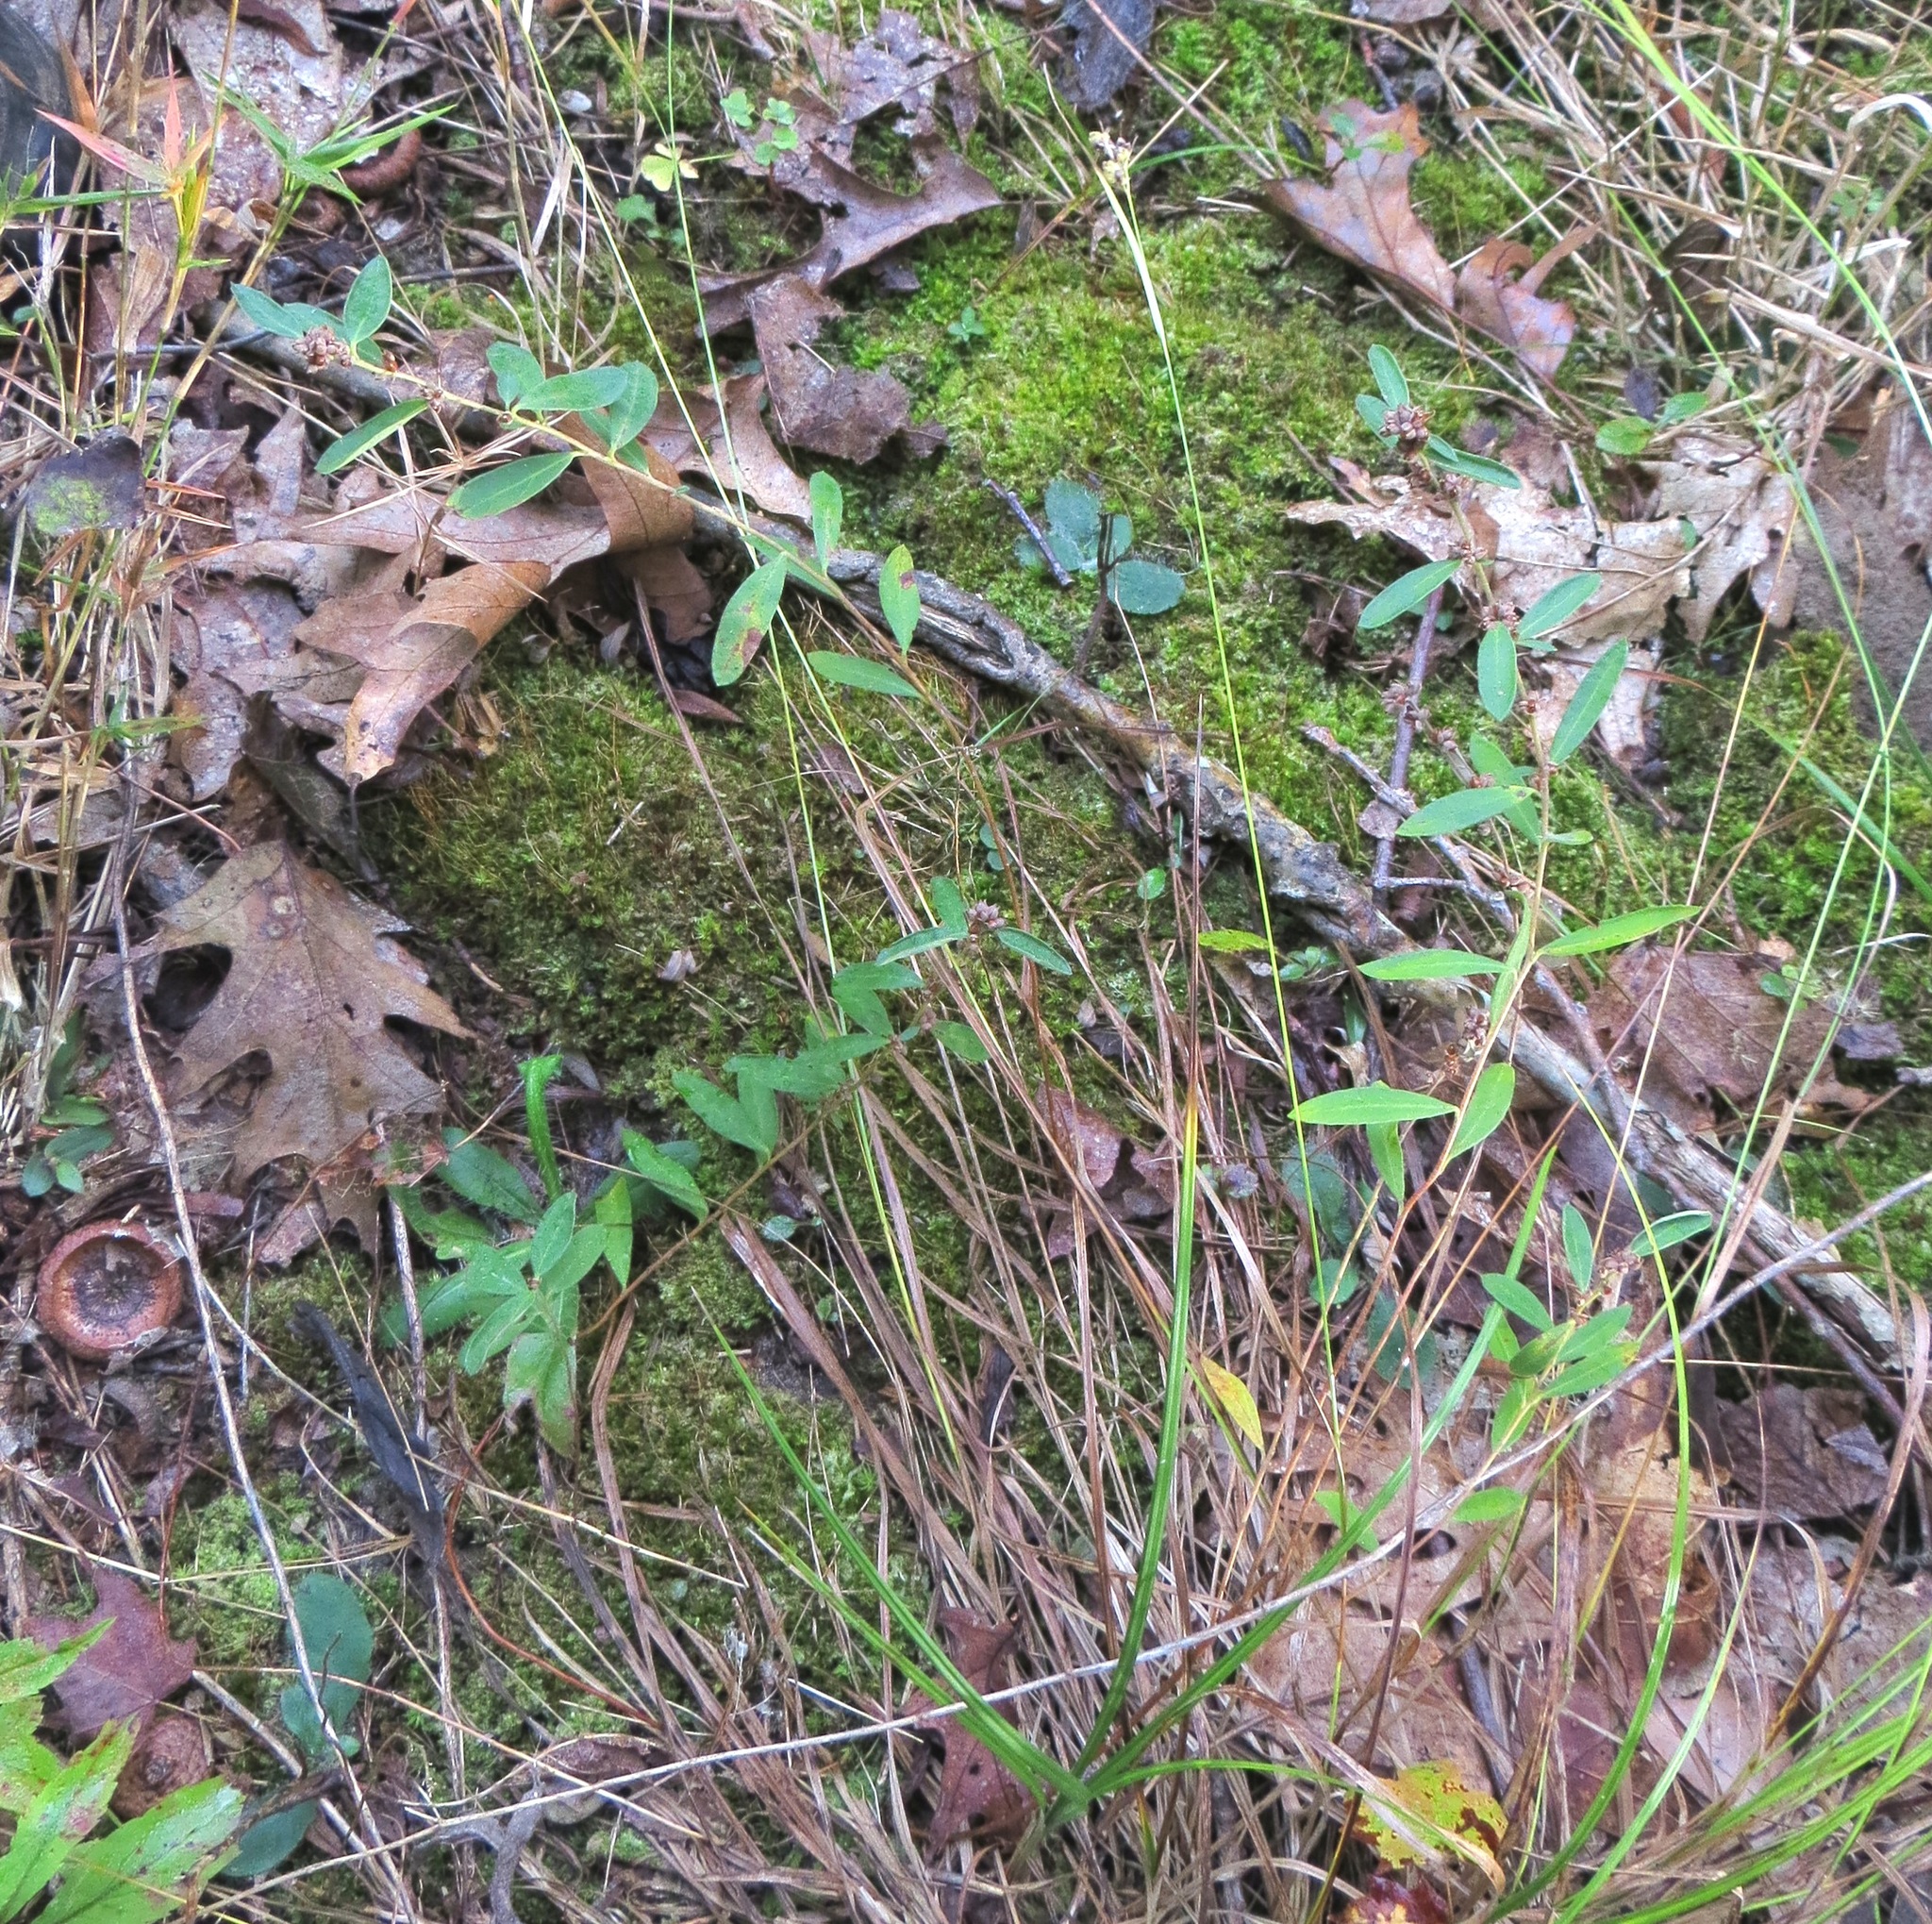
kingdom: Plantae
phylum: Tracheophyta
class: Magnoliopsida
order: Malvales
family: Cistaceae
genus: Crocanthemum
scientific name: Crocanthemum bicknellii
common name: Hoary frostweed
